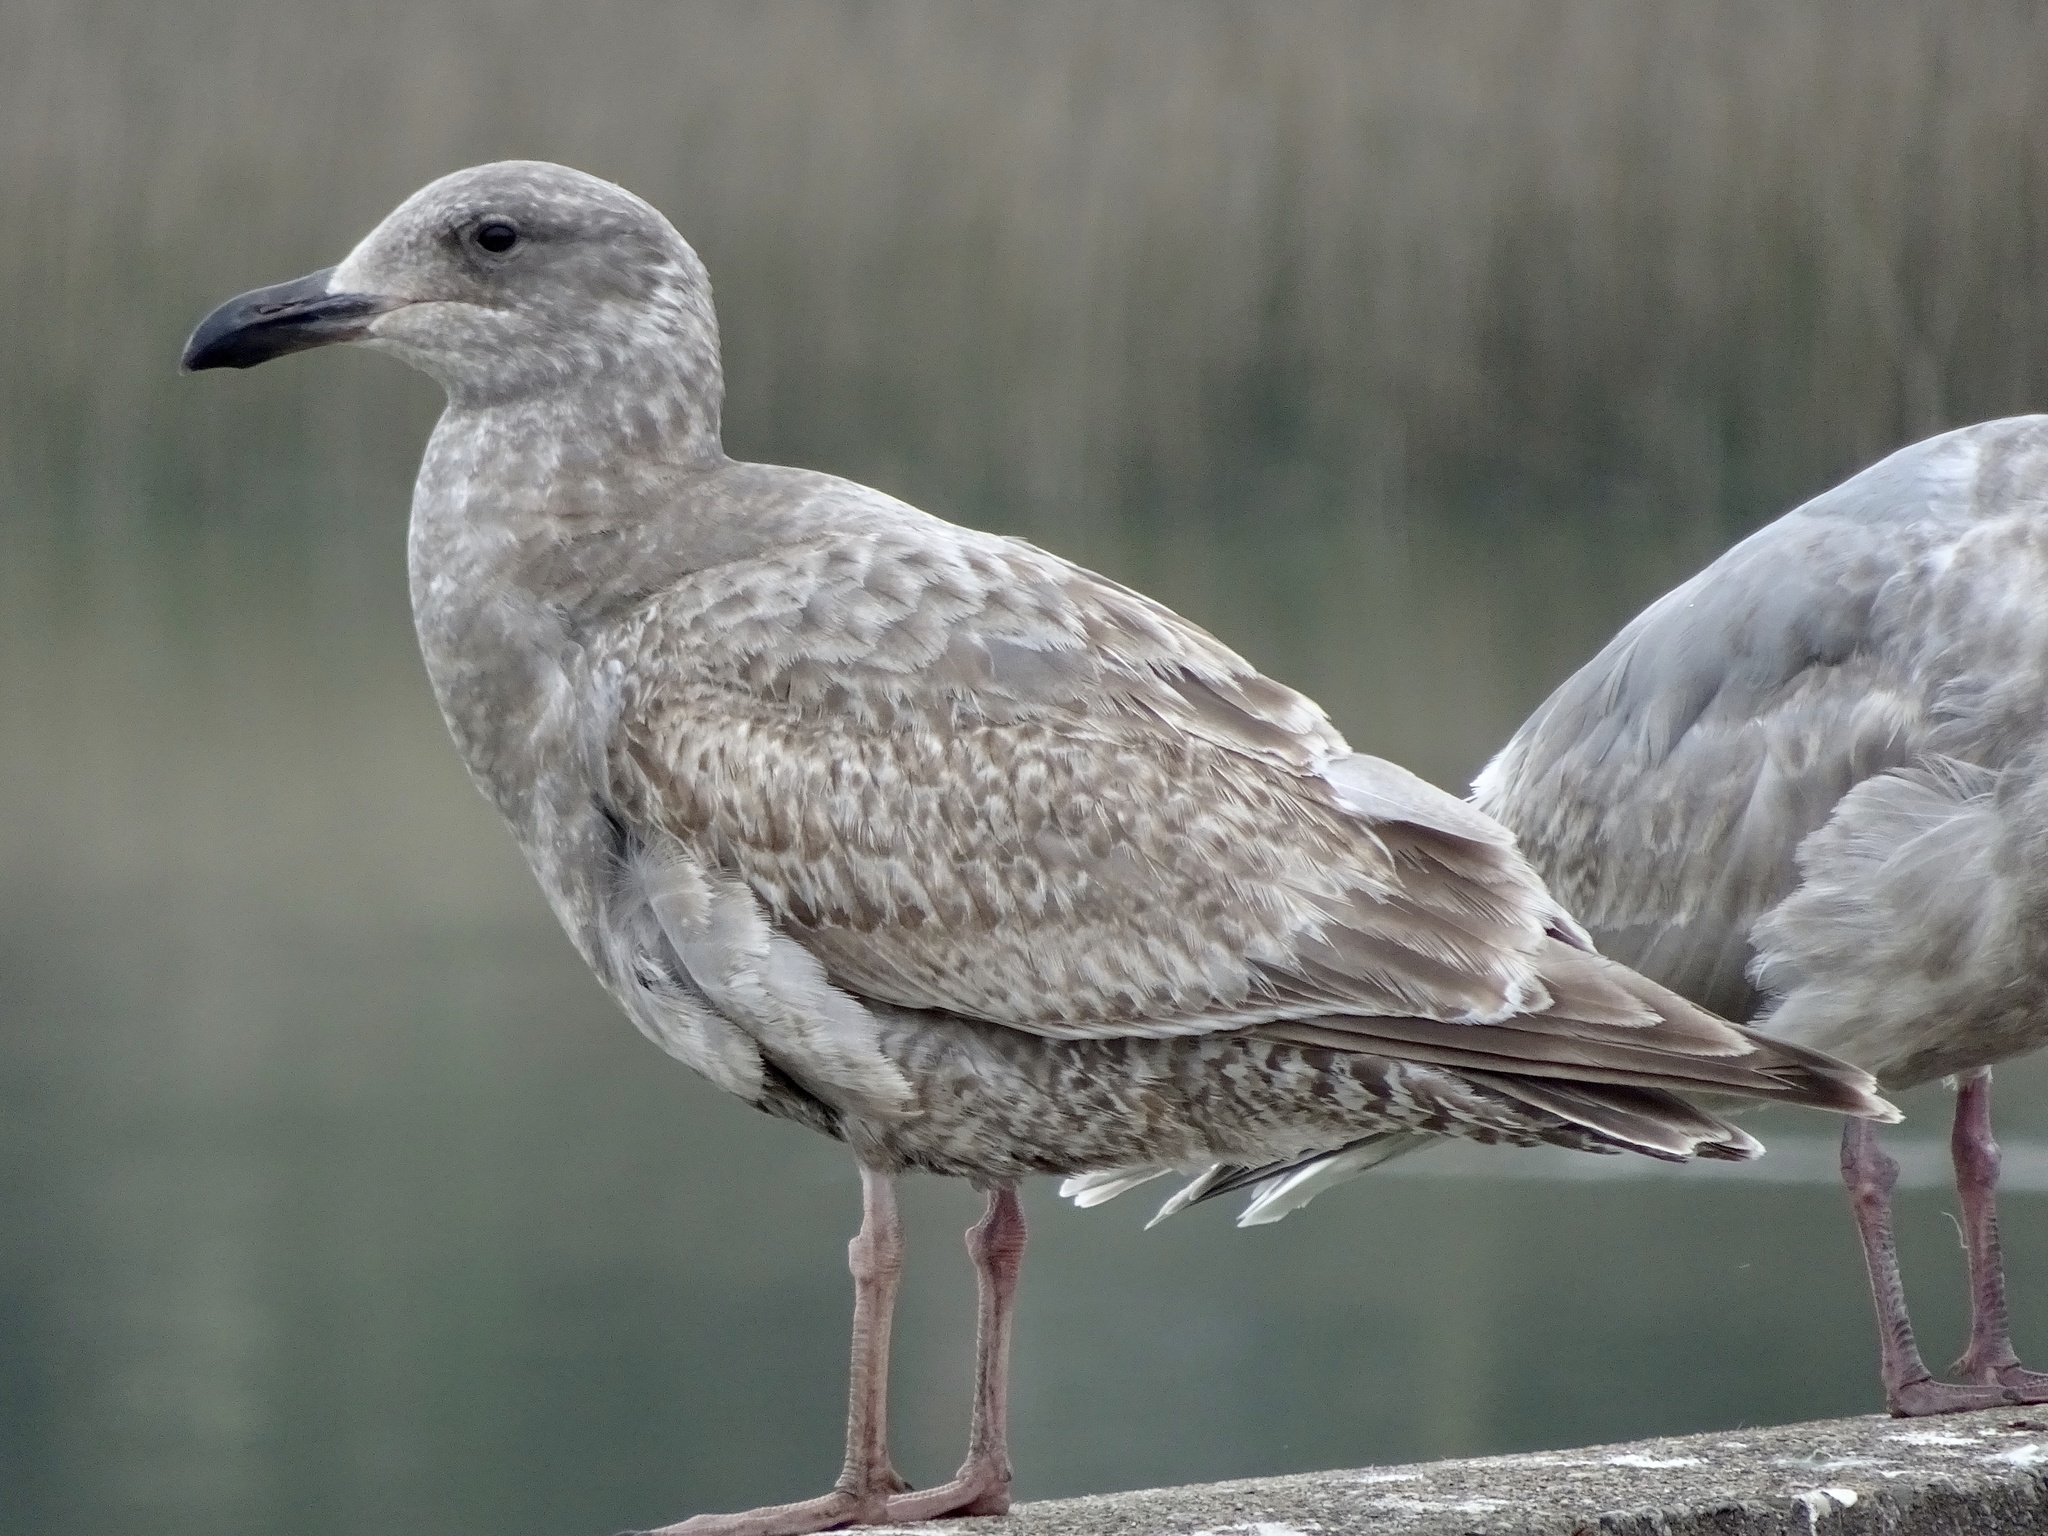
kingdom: Animalia
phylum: Chordata
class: Aves
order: Charadriiformes
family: Laridae
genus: Larus
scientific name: Larus glaucescens
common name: Glaucous-winged gull
